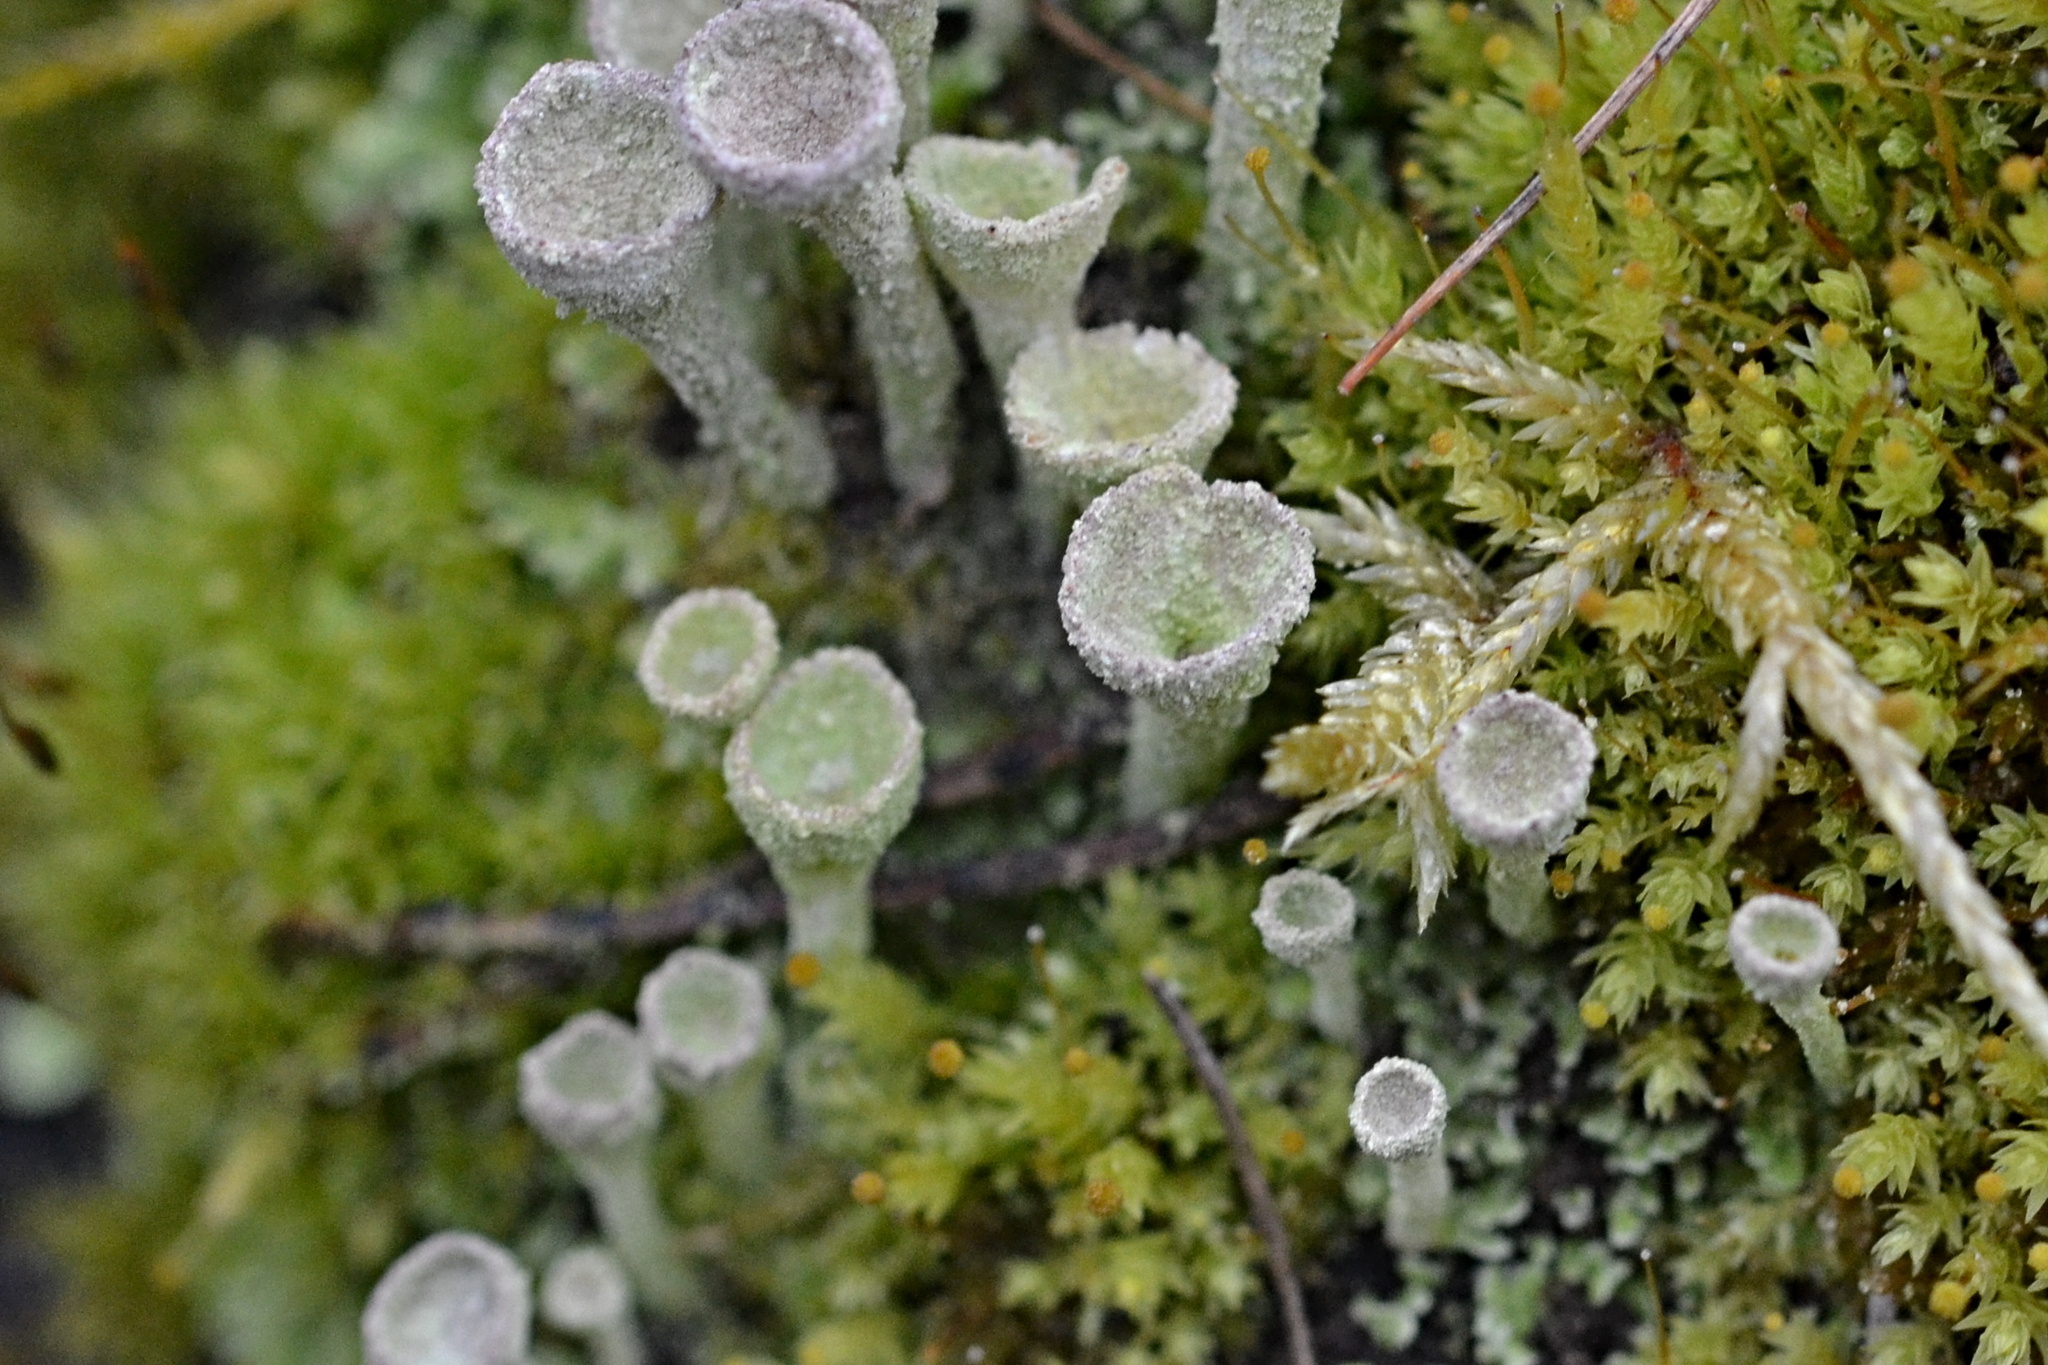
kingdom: Fungi
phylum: Ascomycota
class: Lecanoromycetes
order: Lecanorales
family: Cladoniaceae
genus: Cladonia
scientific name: Cladonia fimbriata
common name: Powdered trumpet lichen
